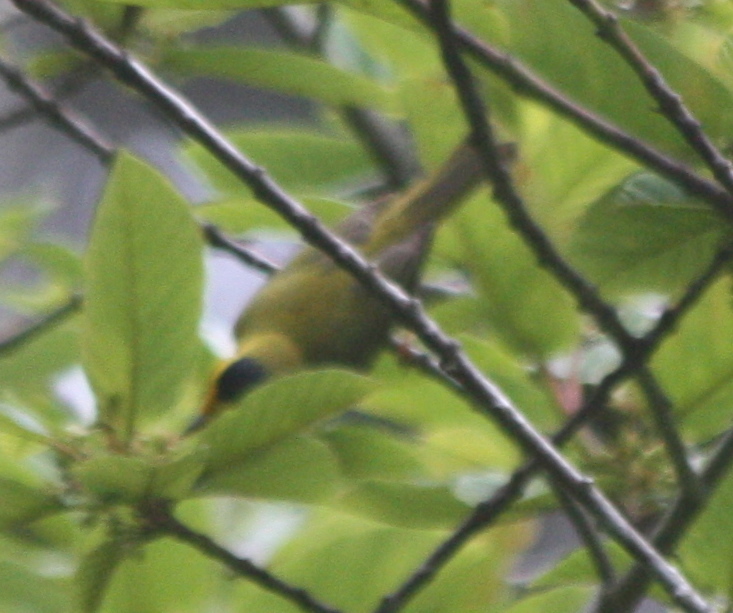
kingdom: Animalia
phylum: Chordata
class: Aves
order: Passeriformes
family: Parulidae
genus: Cardellina
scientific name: Cardellina pusilla
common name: Wilson's warbler
